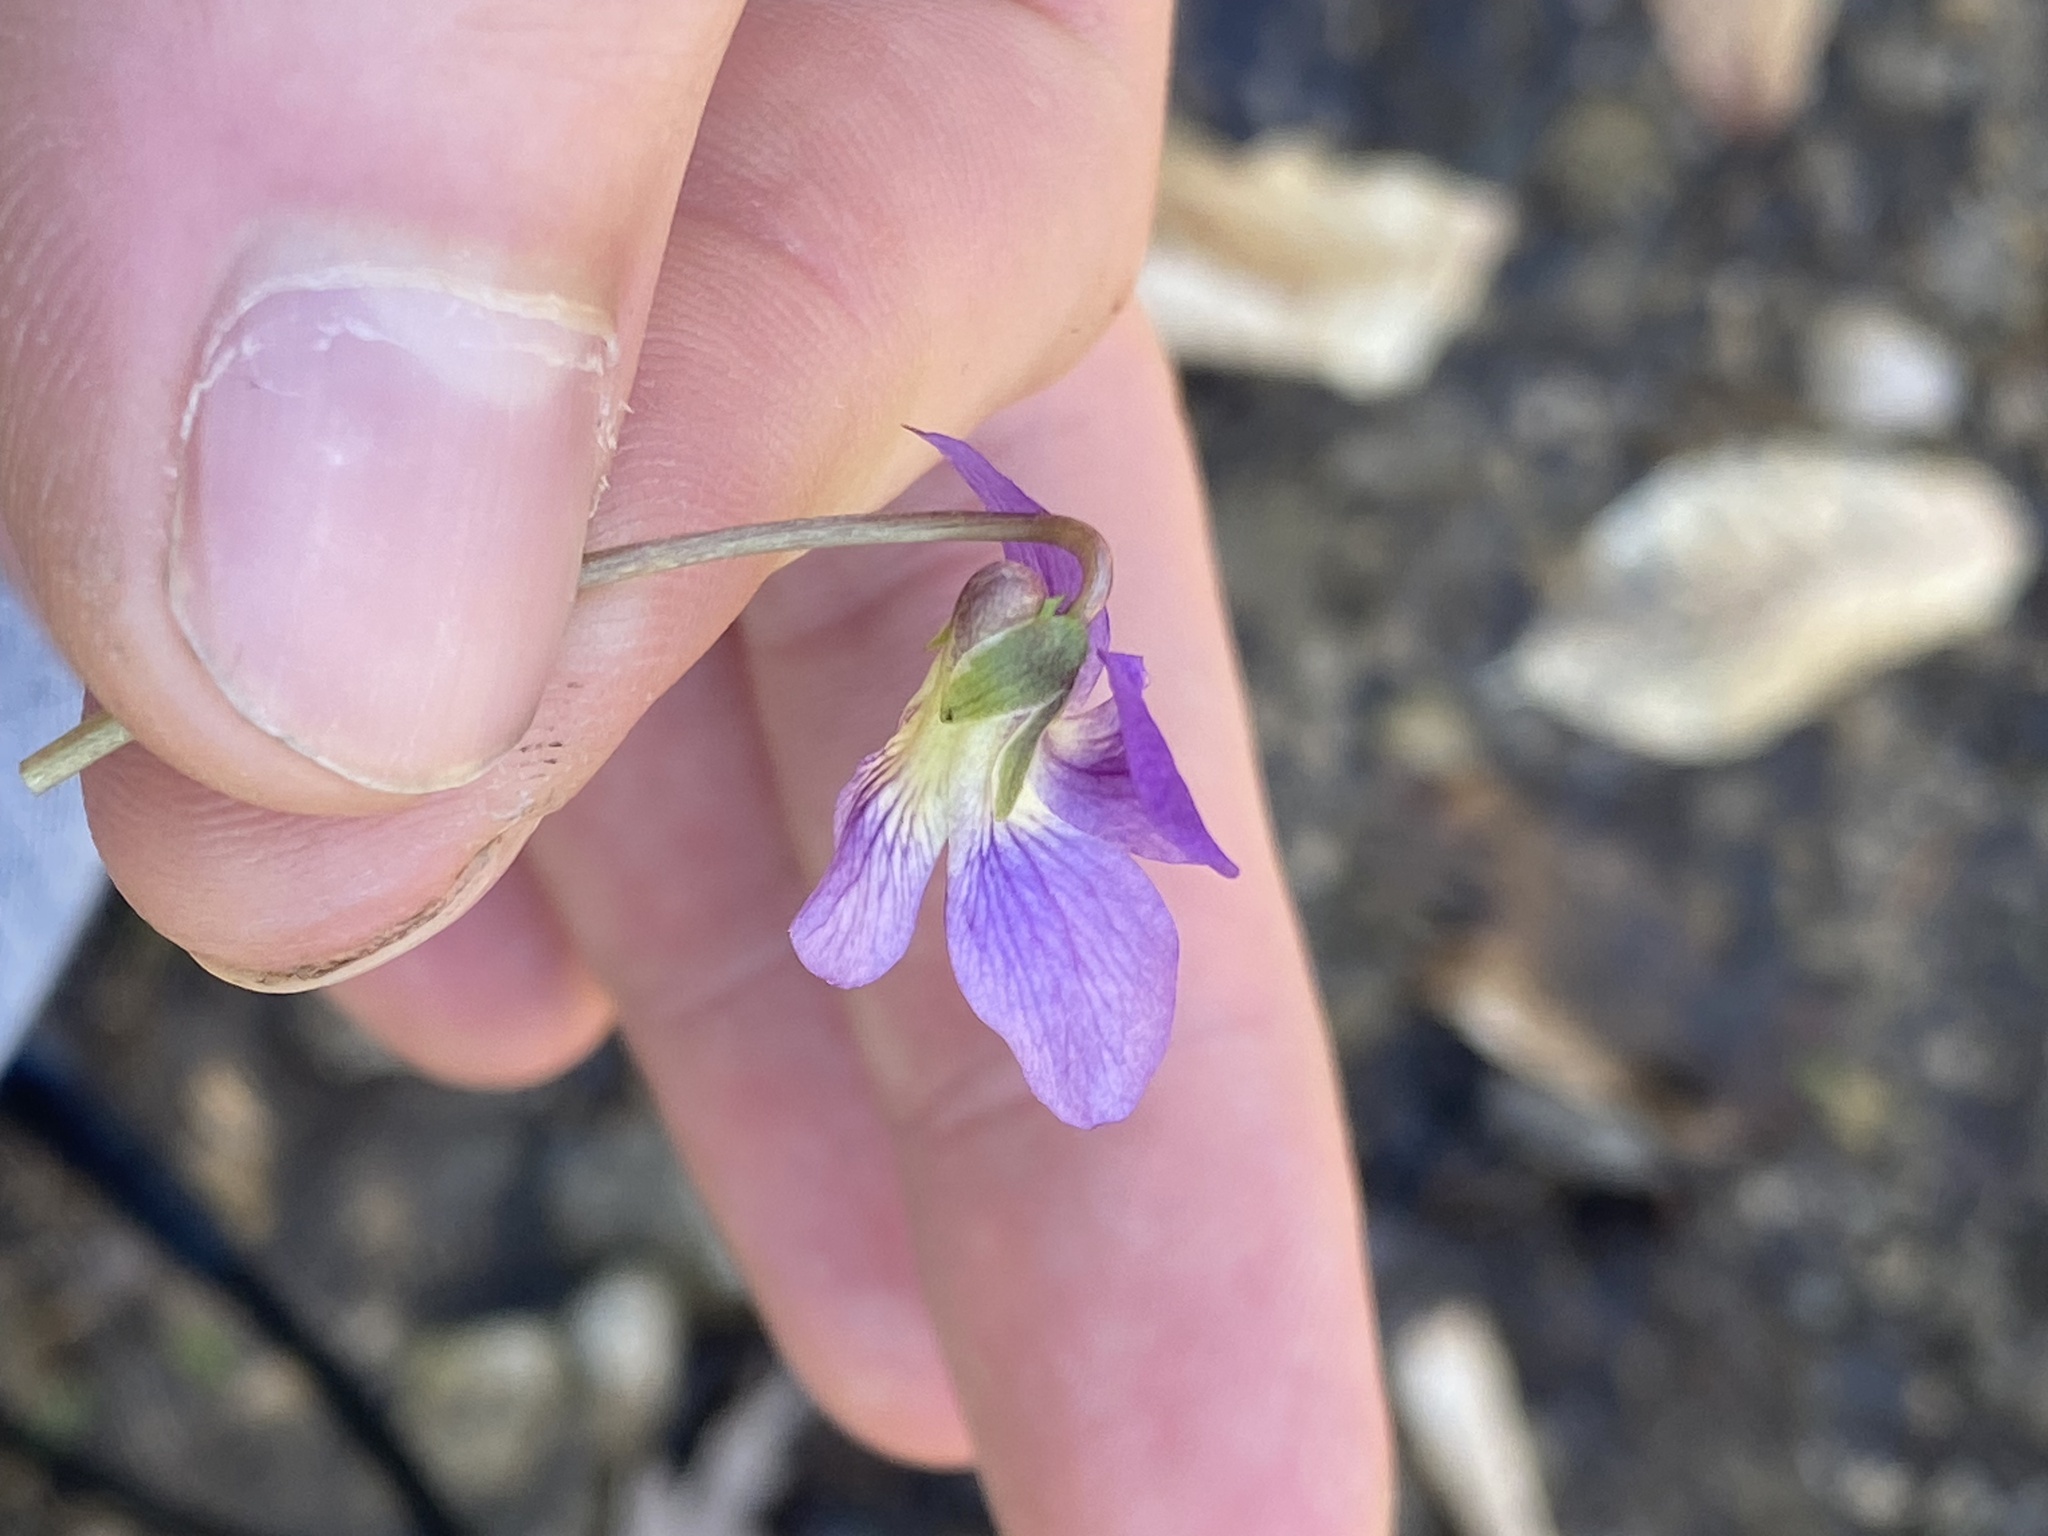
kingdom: Plantae
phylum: Tracheophyta
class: Magnoliopsida
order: Malpighiales
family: Violaceae
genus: Viola
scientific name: Viola sororia
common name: Dooryard violet
